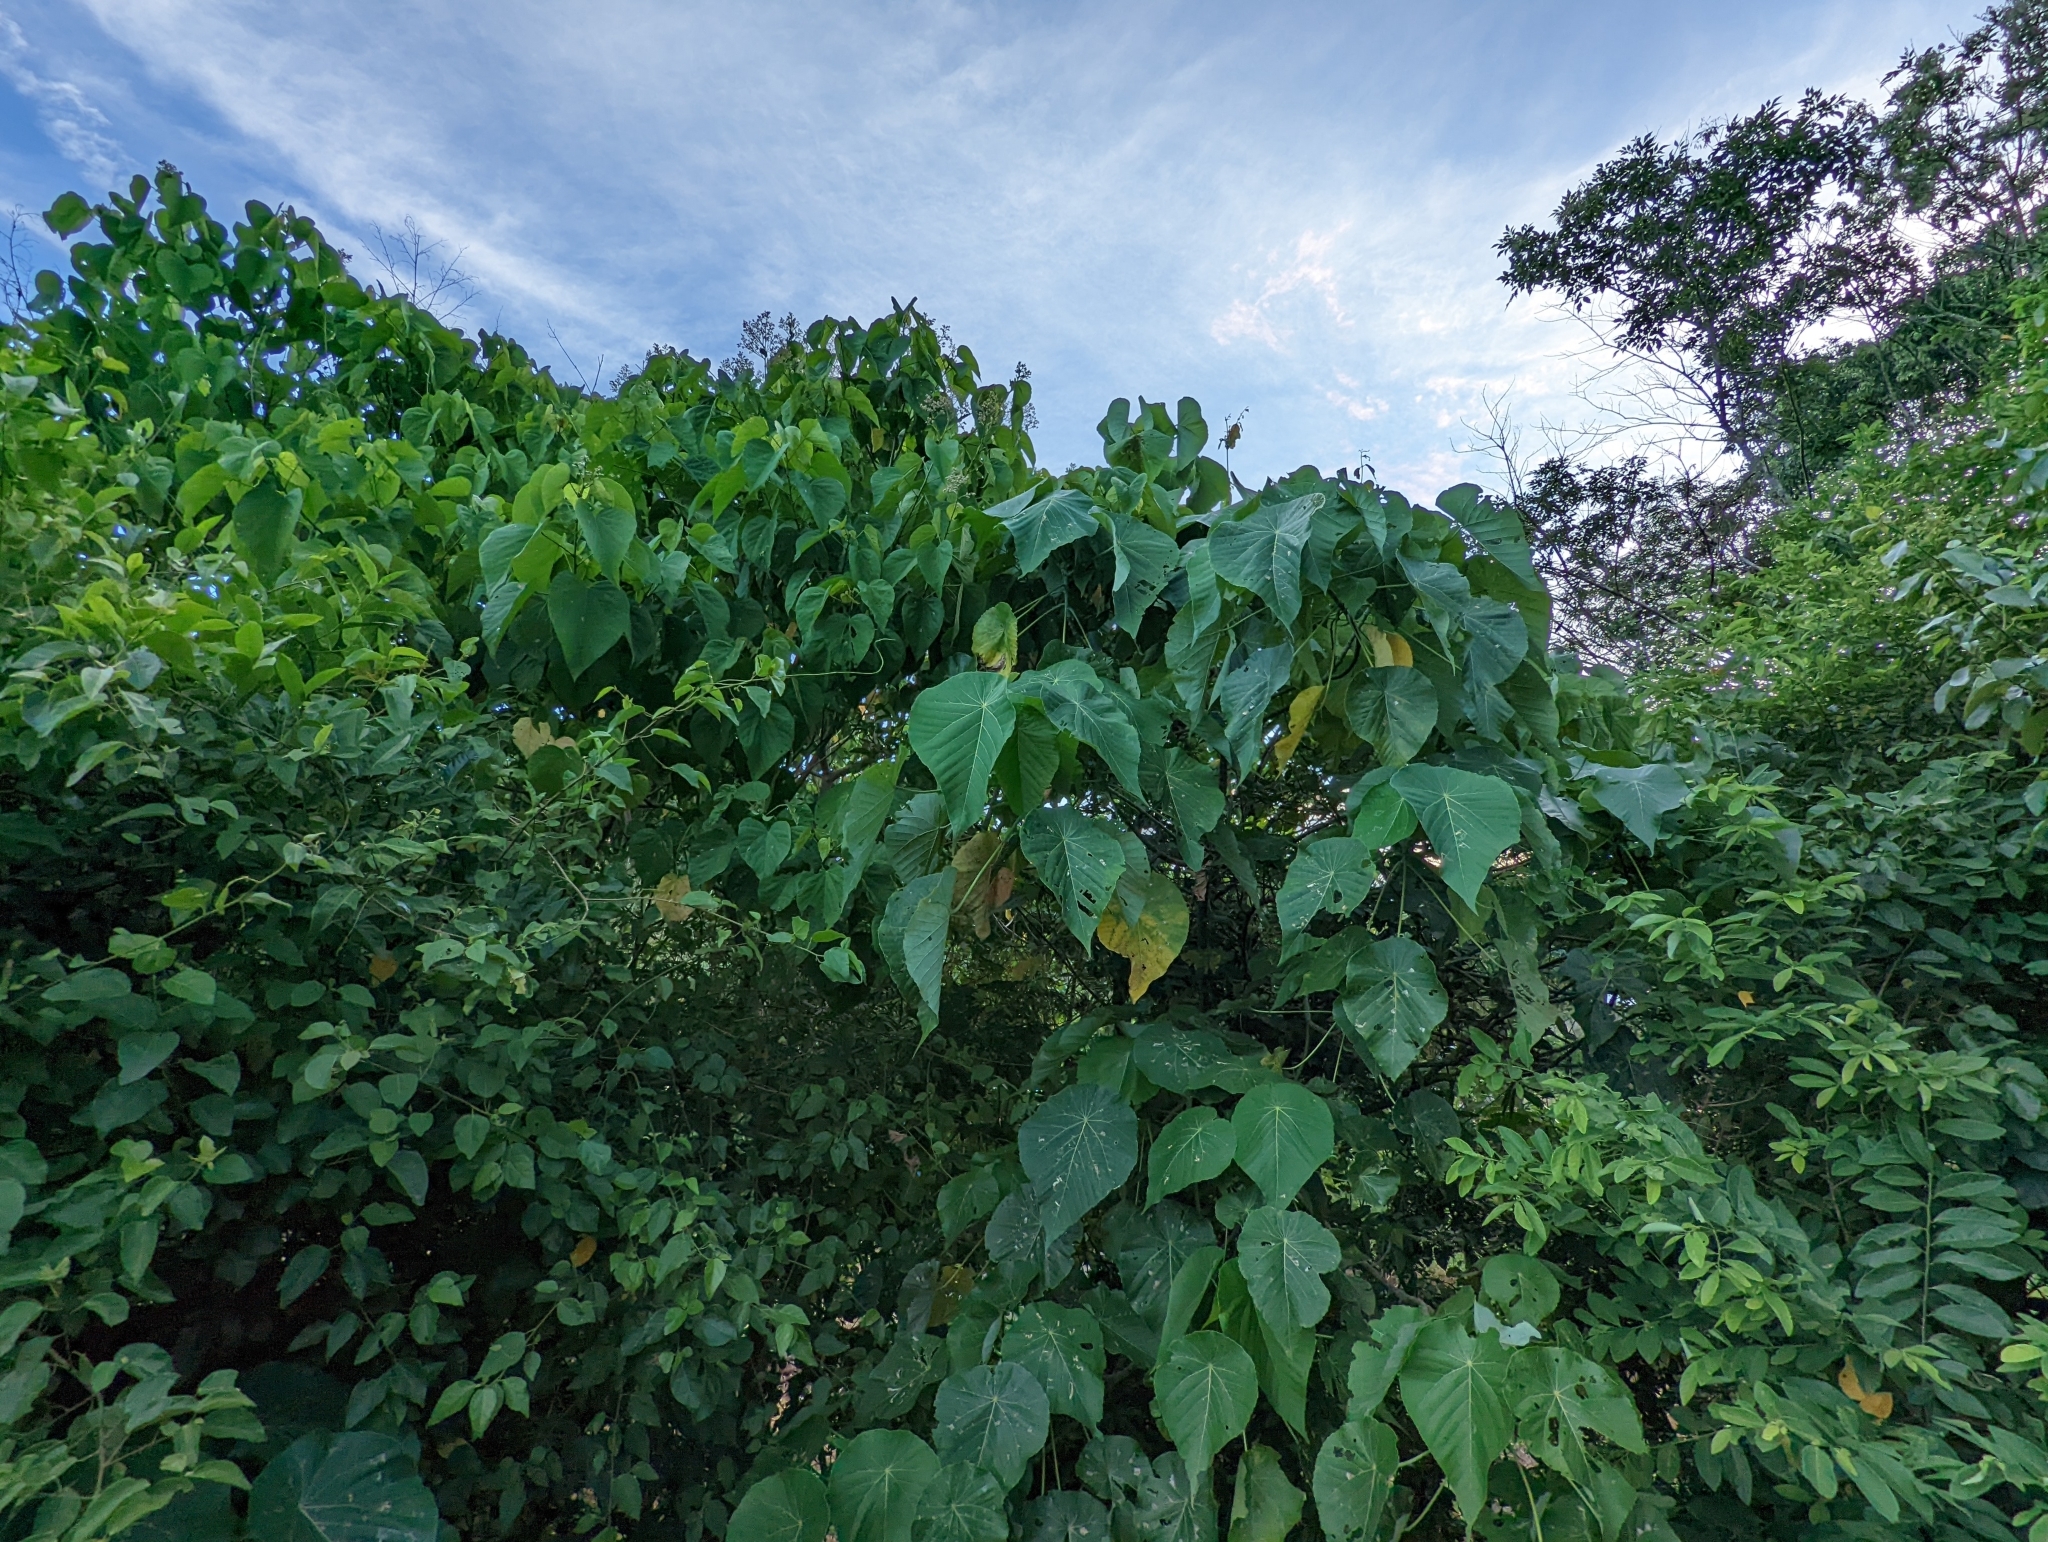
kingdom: Plantae
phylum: Tracheophyta
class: Magnoliopsida
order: Malpighiales
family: Euphorbiaceae
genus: Macaranga
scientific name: Macaranga tanarius
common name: Parasol leaf tree
